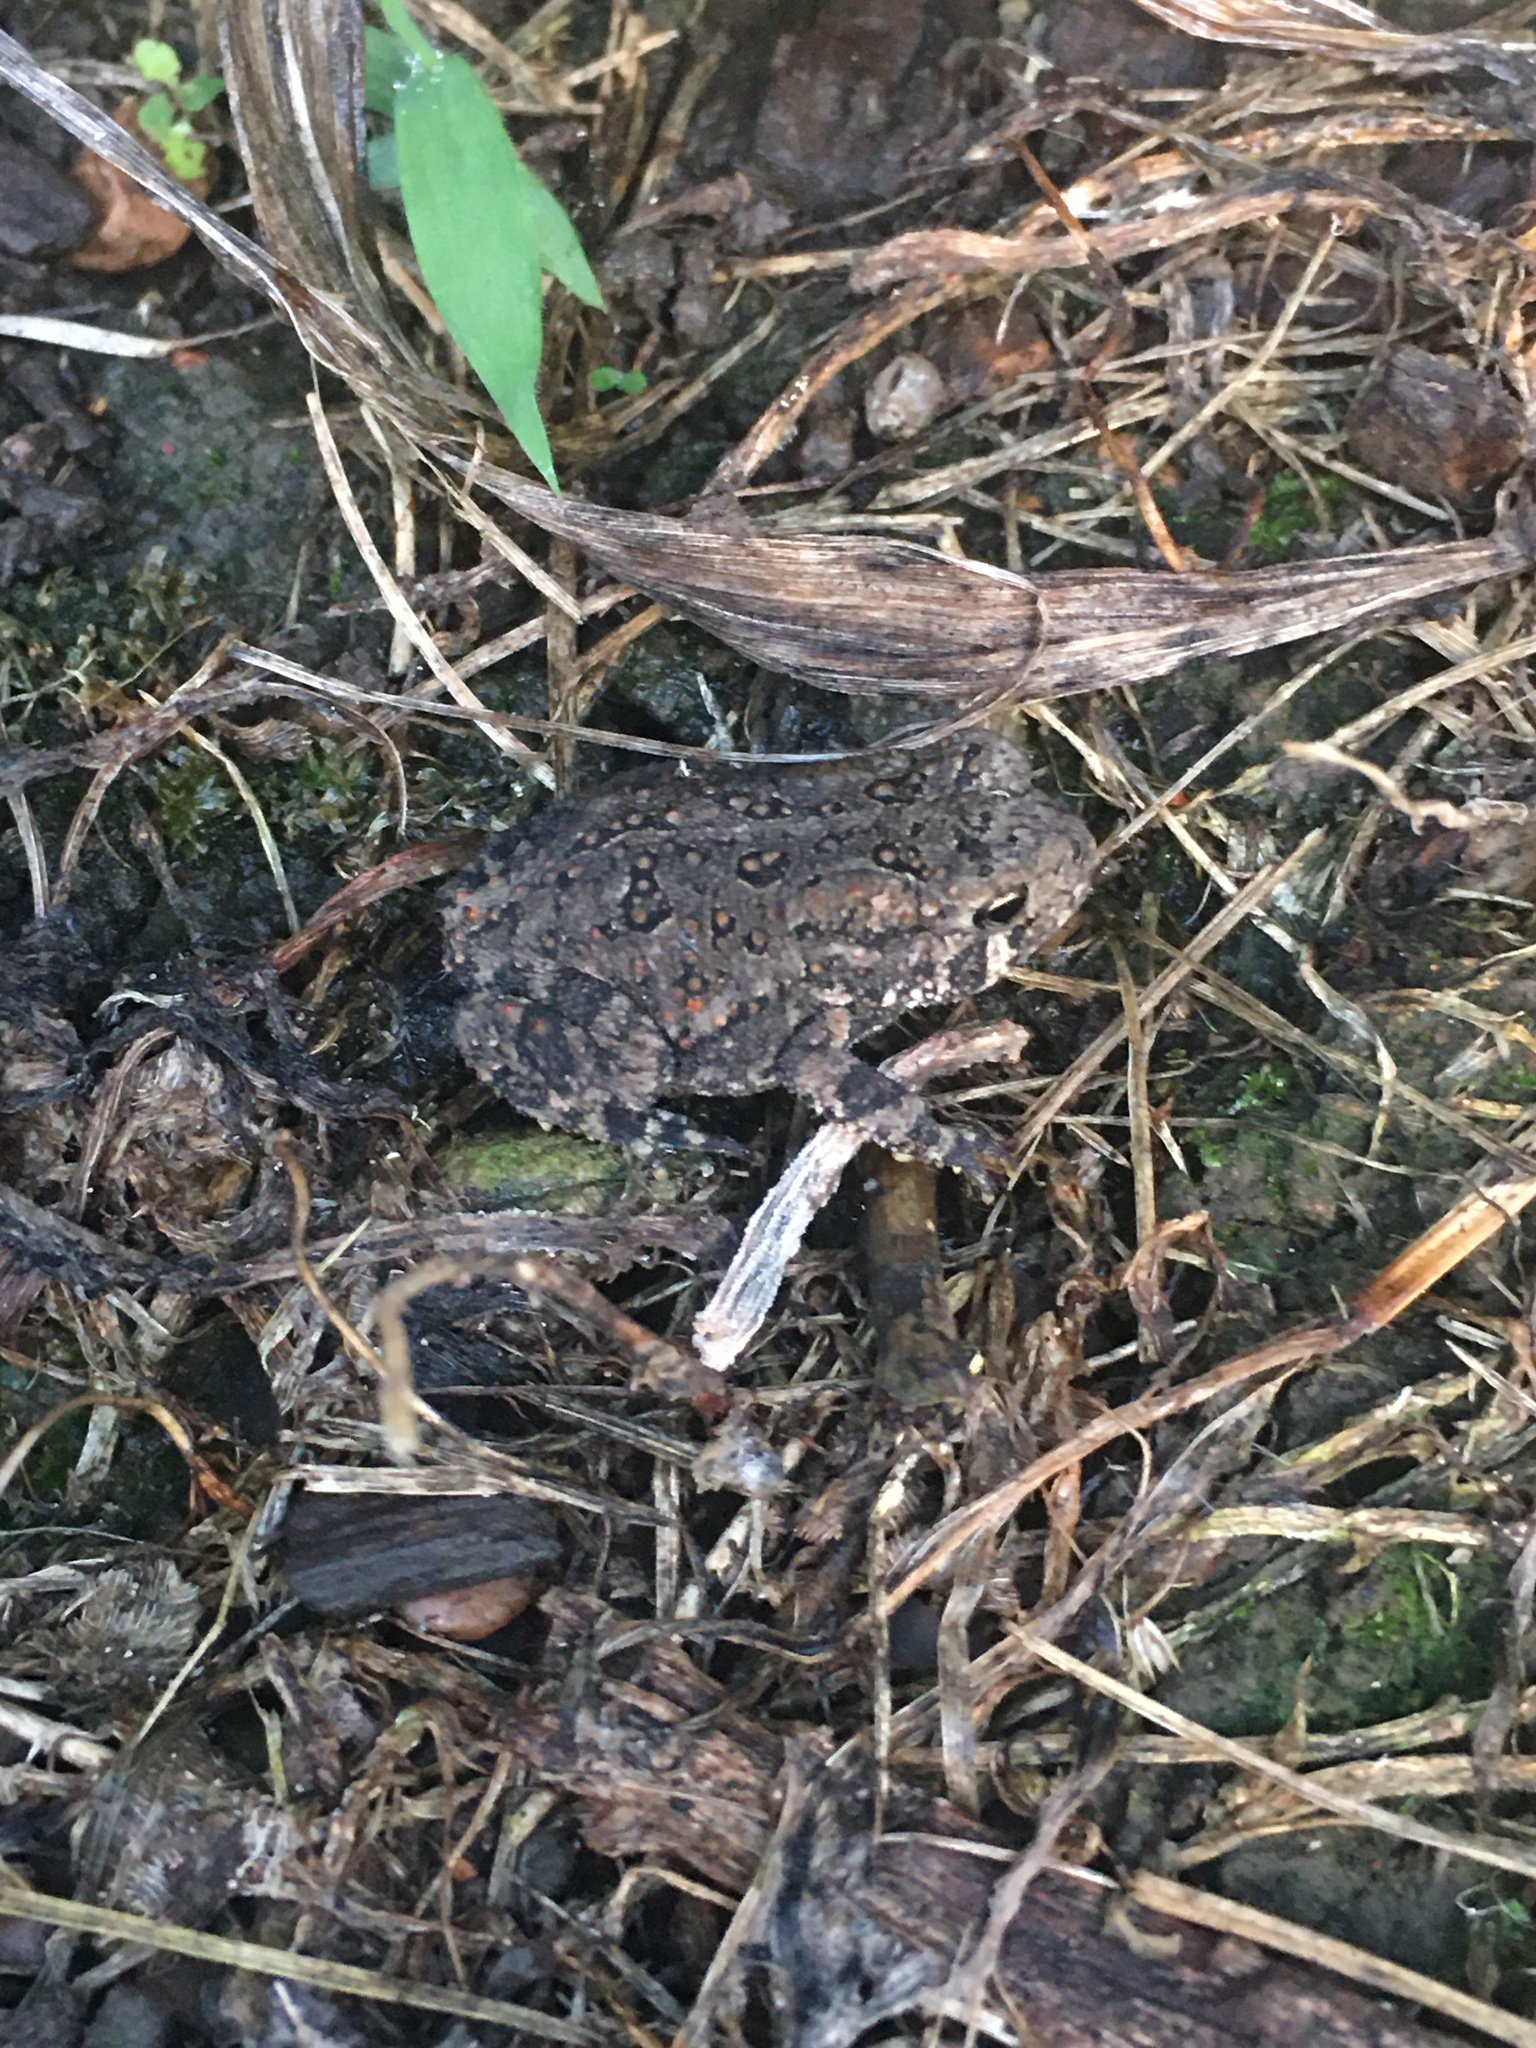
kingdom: Animalia
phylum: Chordata
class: Amphibia
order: Anura
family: Bufonidae
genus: Anaxyrus
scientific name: Anaxyrus americanus
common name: American toad
